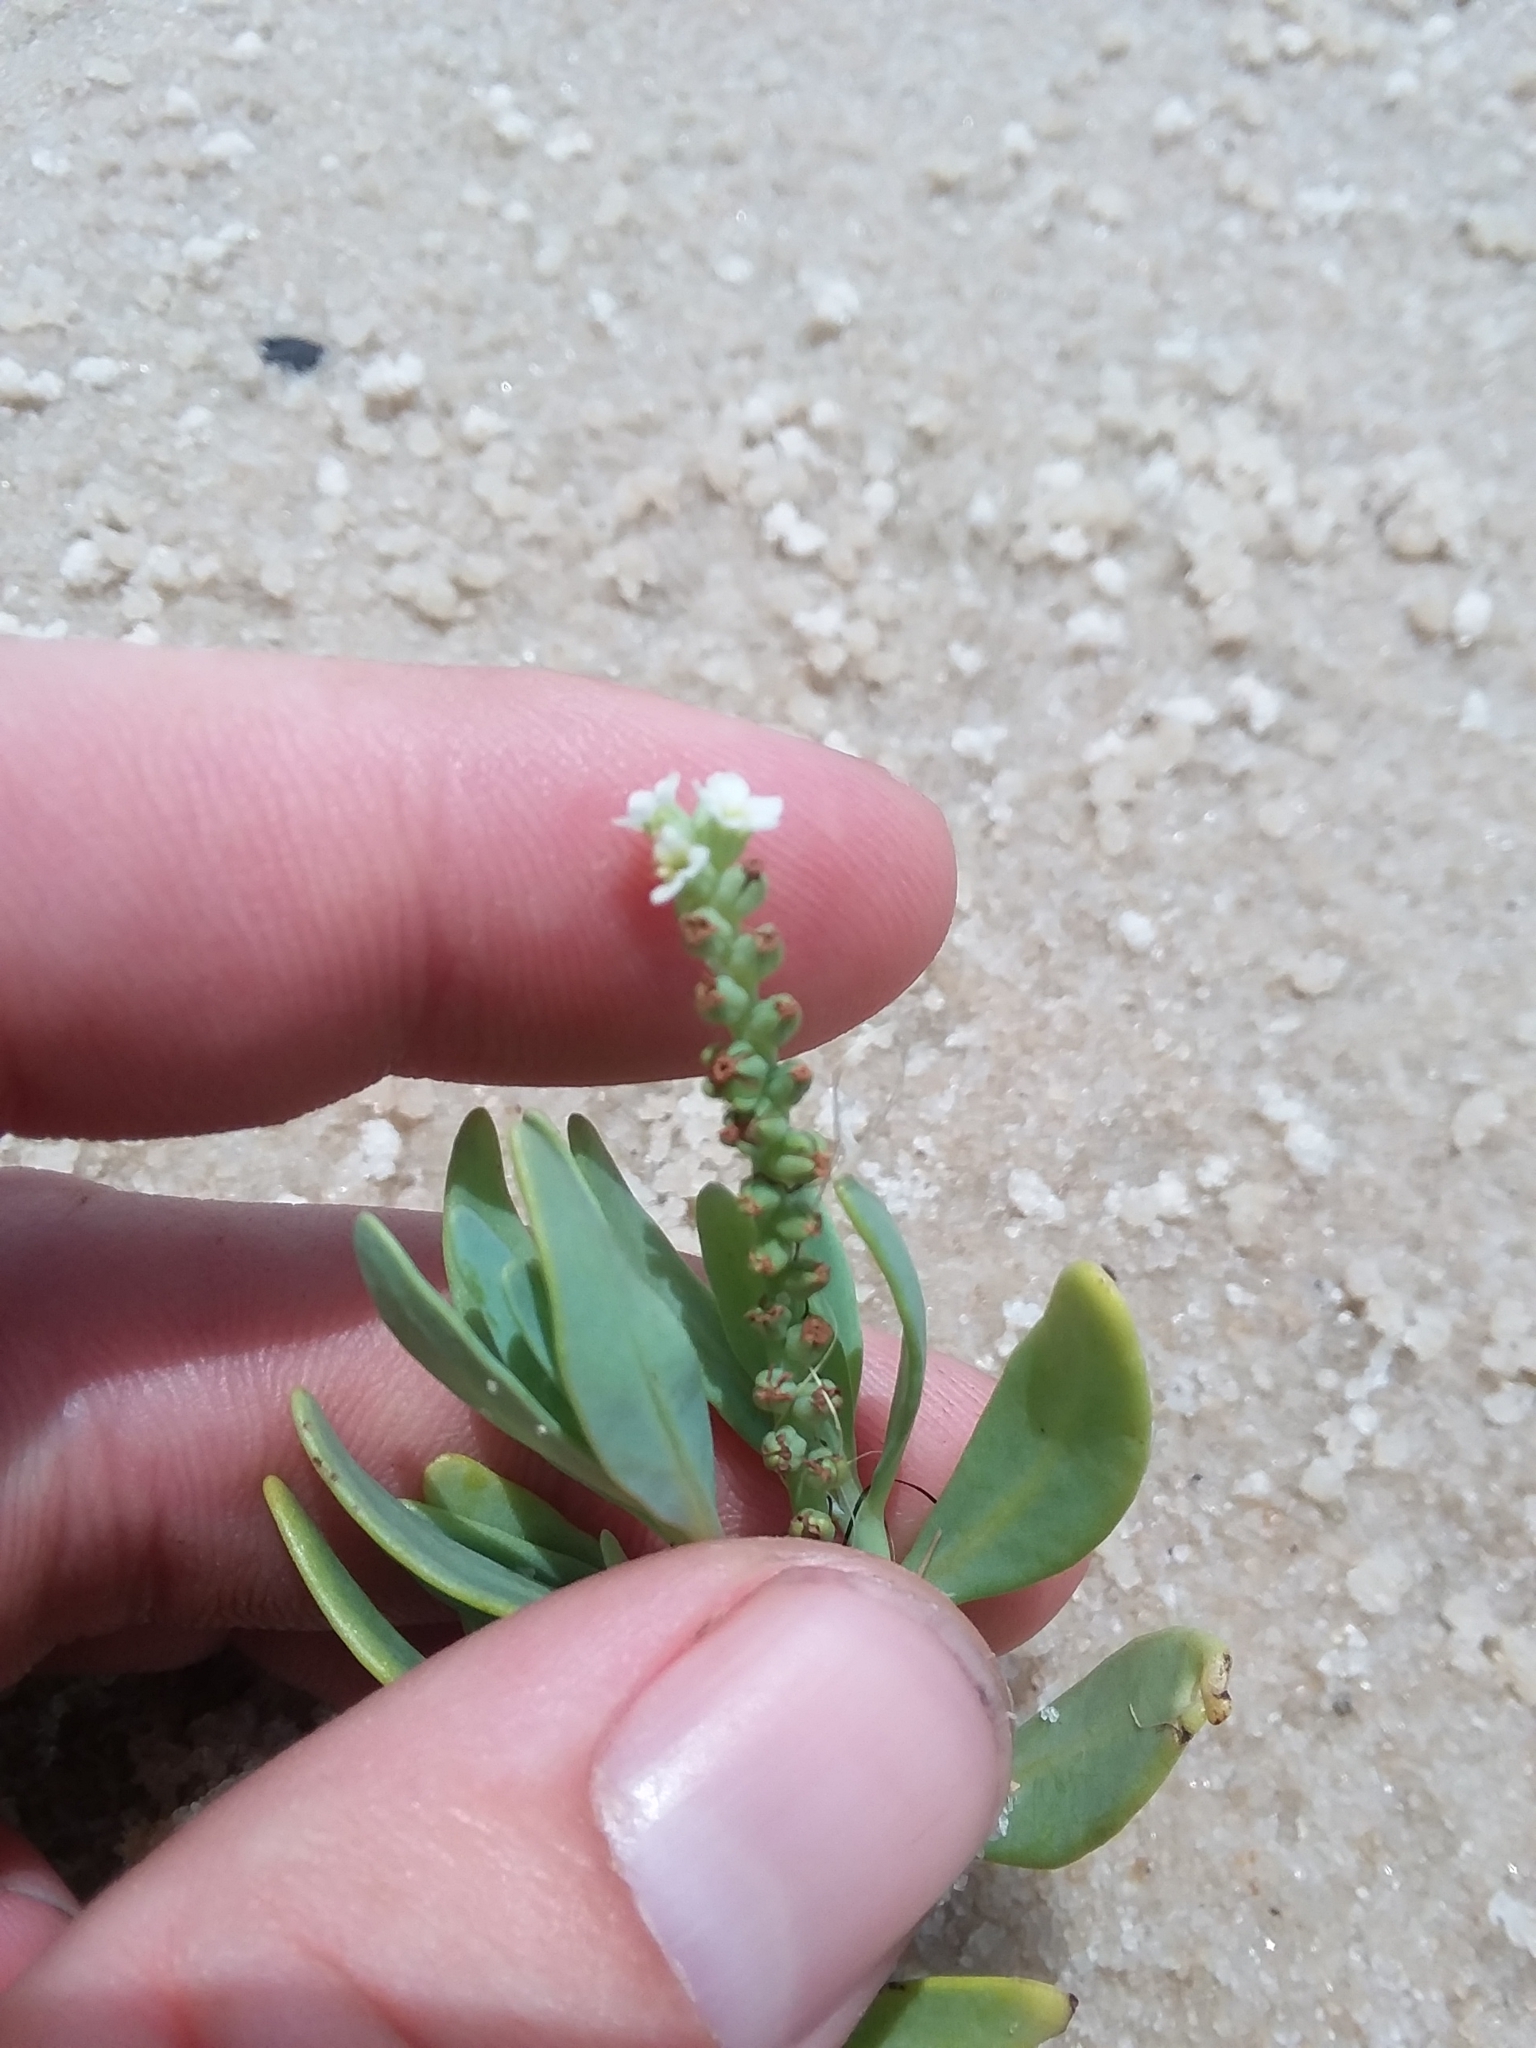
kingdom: Plantae
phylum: Tracheophyta
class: Magnoliopsida
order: Boraginales
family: Heliotropiaceae
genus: Heliotropium
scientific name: Heliotropium curassavicum
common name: Seaside heliotrope
